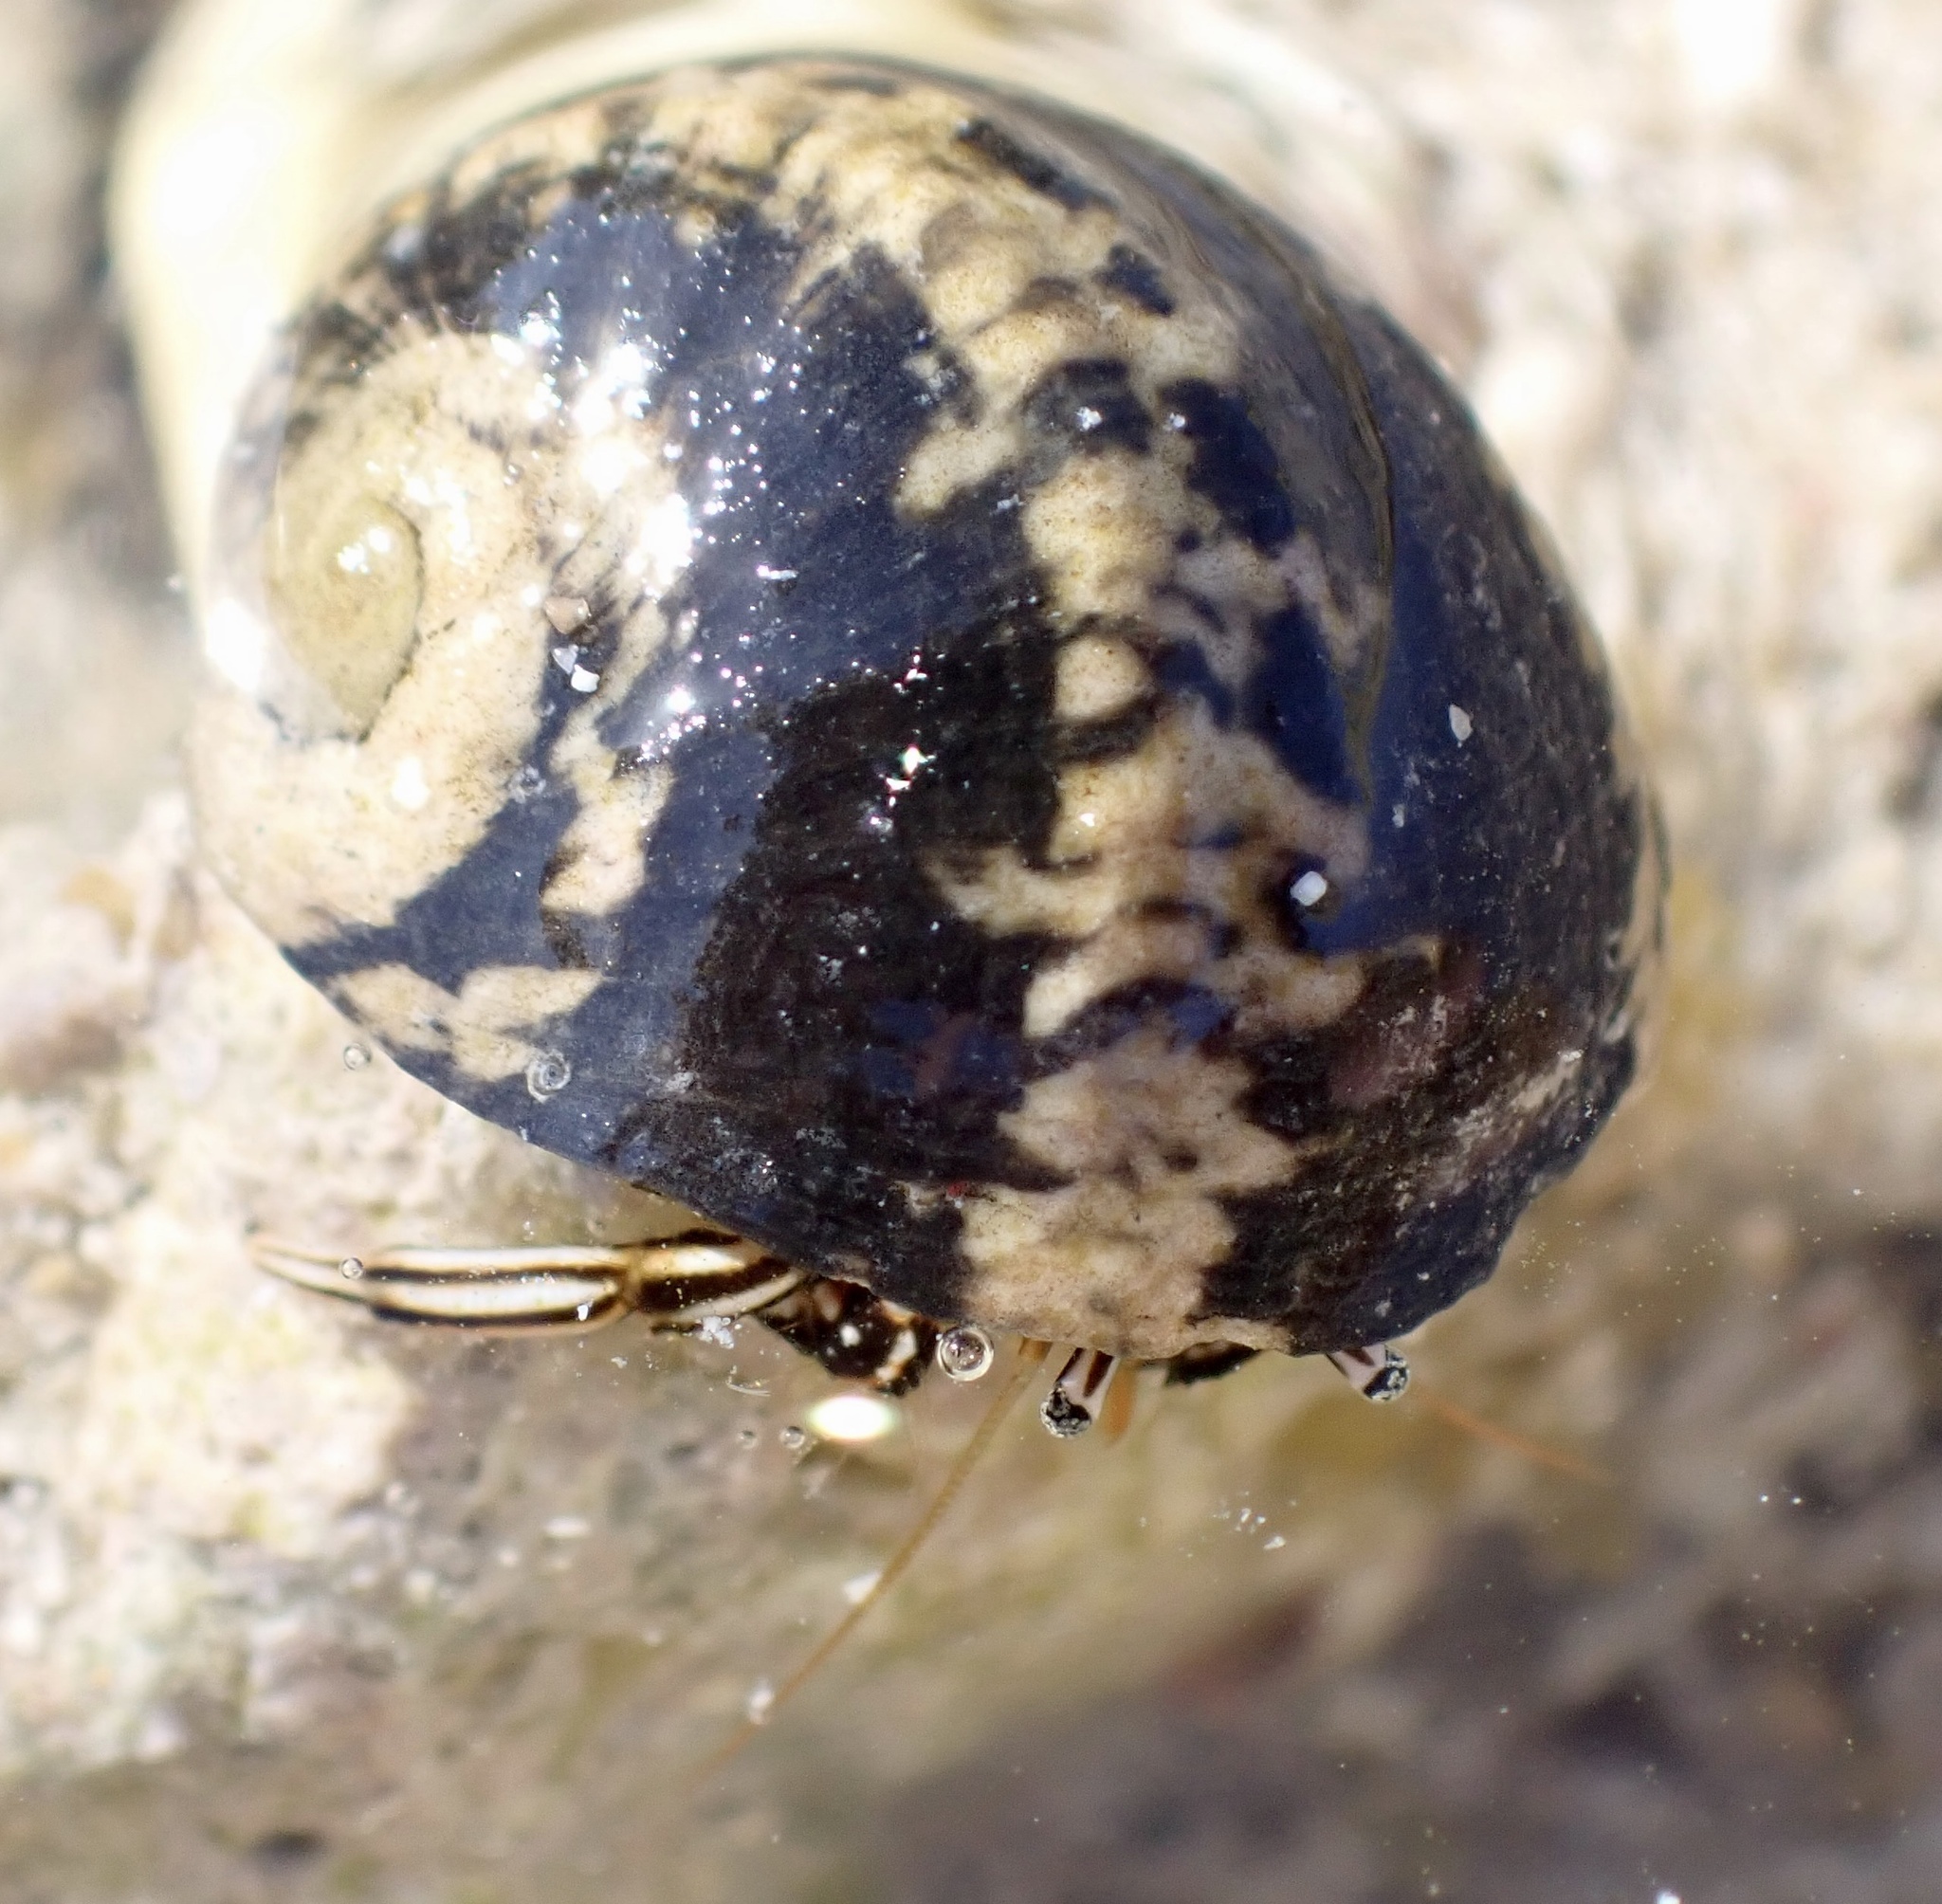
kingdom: Animalia
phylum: Arthropoda
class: Malacostraca
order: Decapoda
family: Diogenidae
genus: Clibanarius
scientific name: Clibanarius signatus
